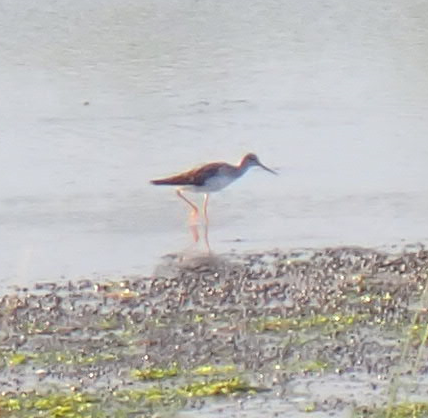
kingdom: Animalia
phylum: Chordata
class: Aves
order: Charadriiformes
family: Scolopacidae
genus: Tringa
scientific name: Tringa melanoleuca
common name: Greater yellowlegs
